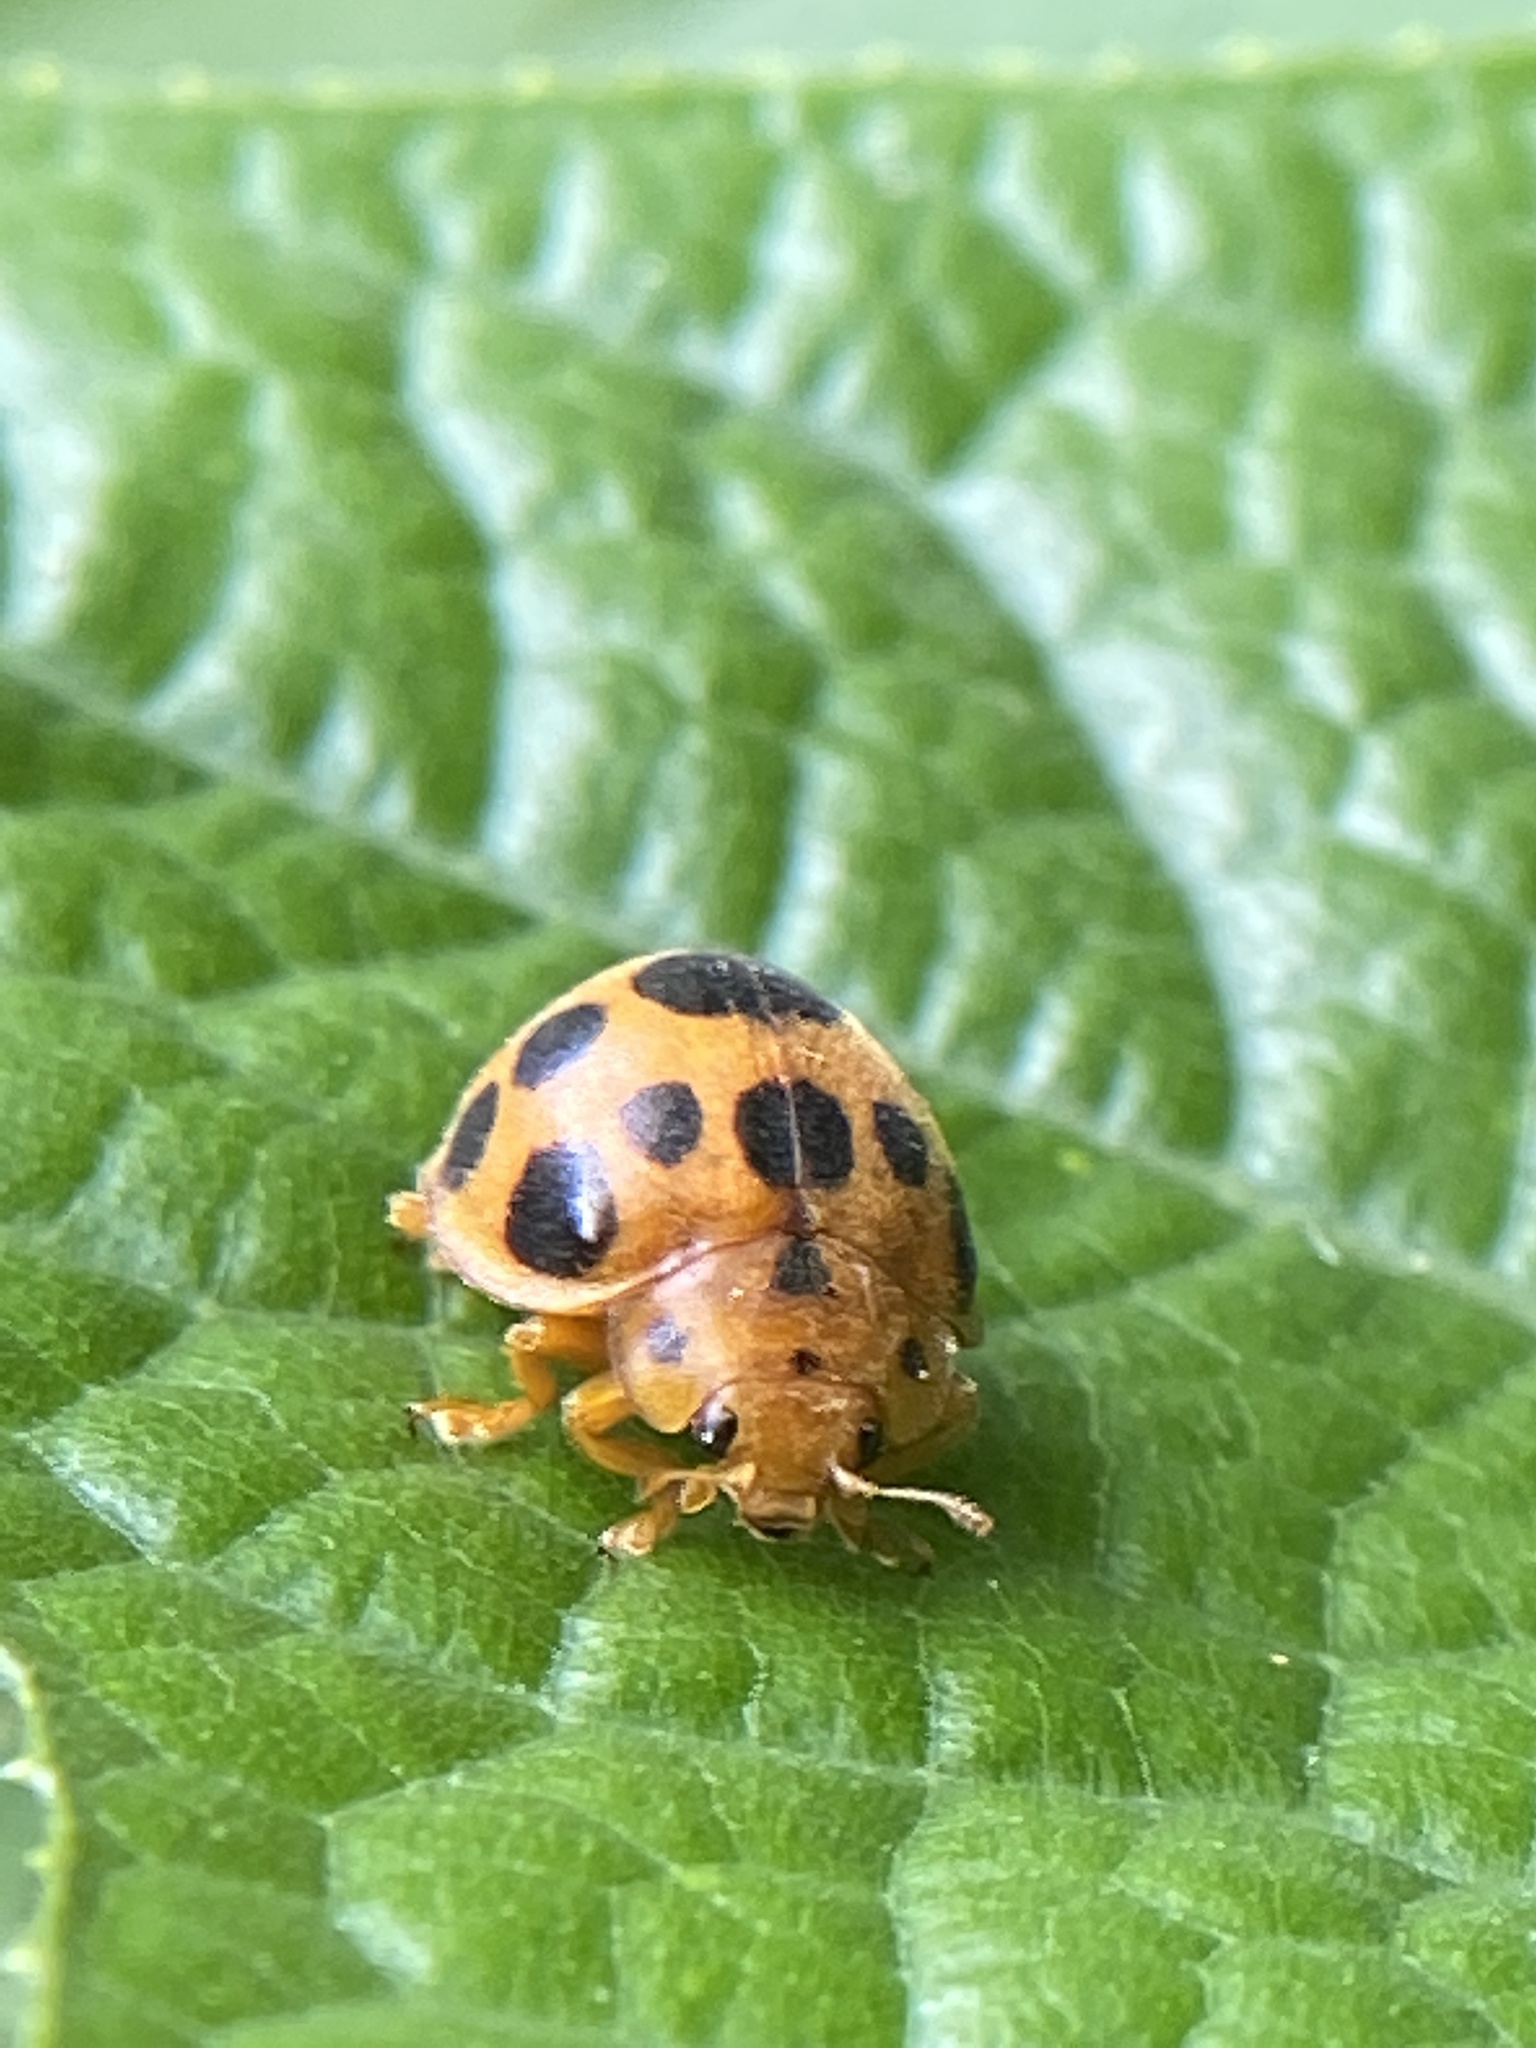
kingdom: Animalia
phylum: Arthropoda
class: Insecta
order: Coleoptera
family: Coccinellidae
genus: Epilachna
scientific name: Epilachna borealis
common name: Squash beetle
